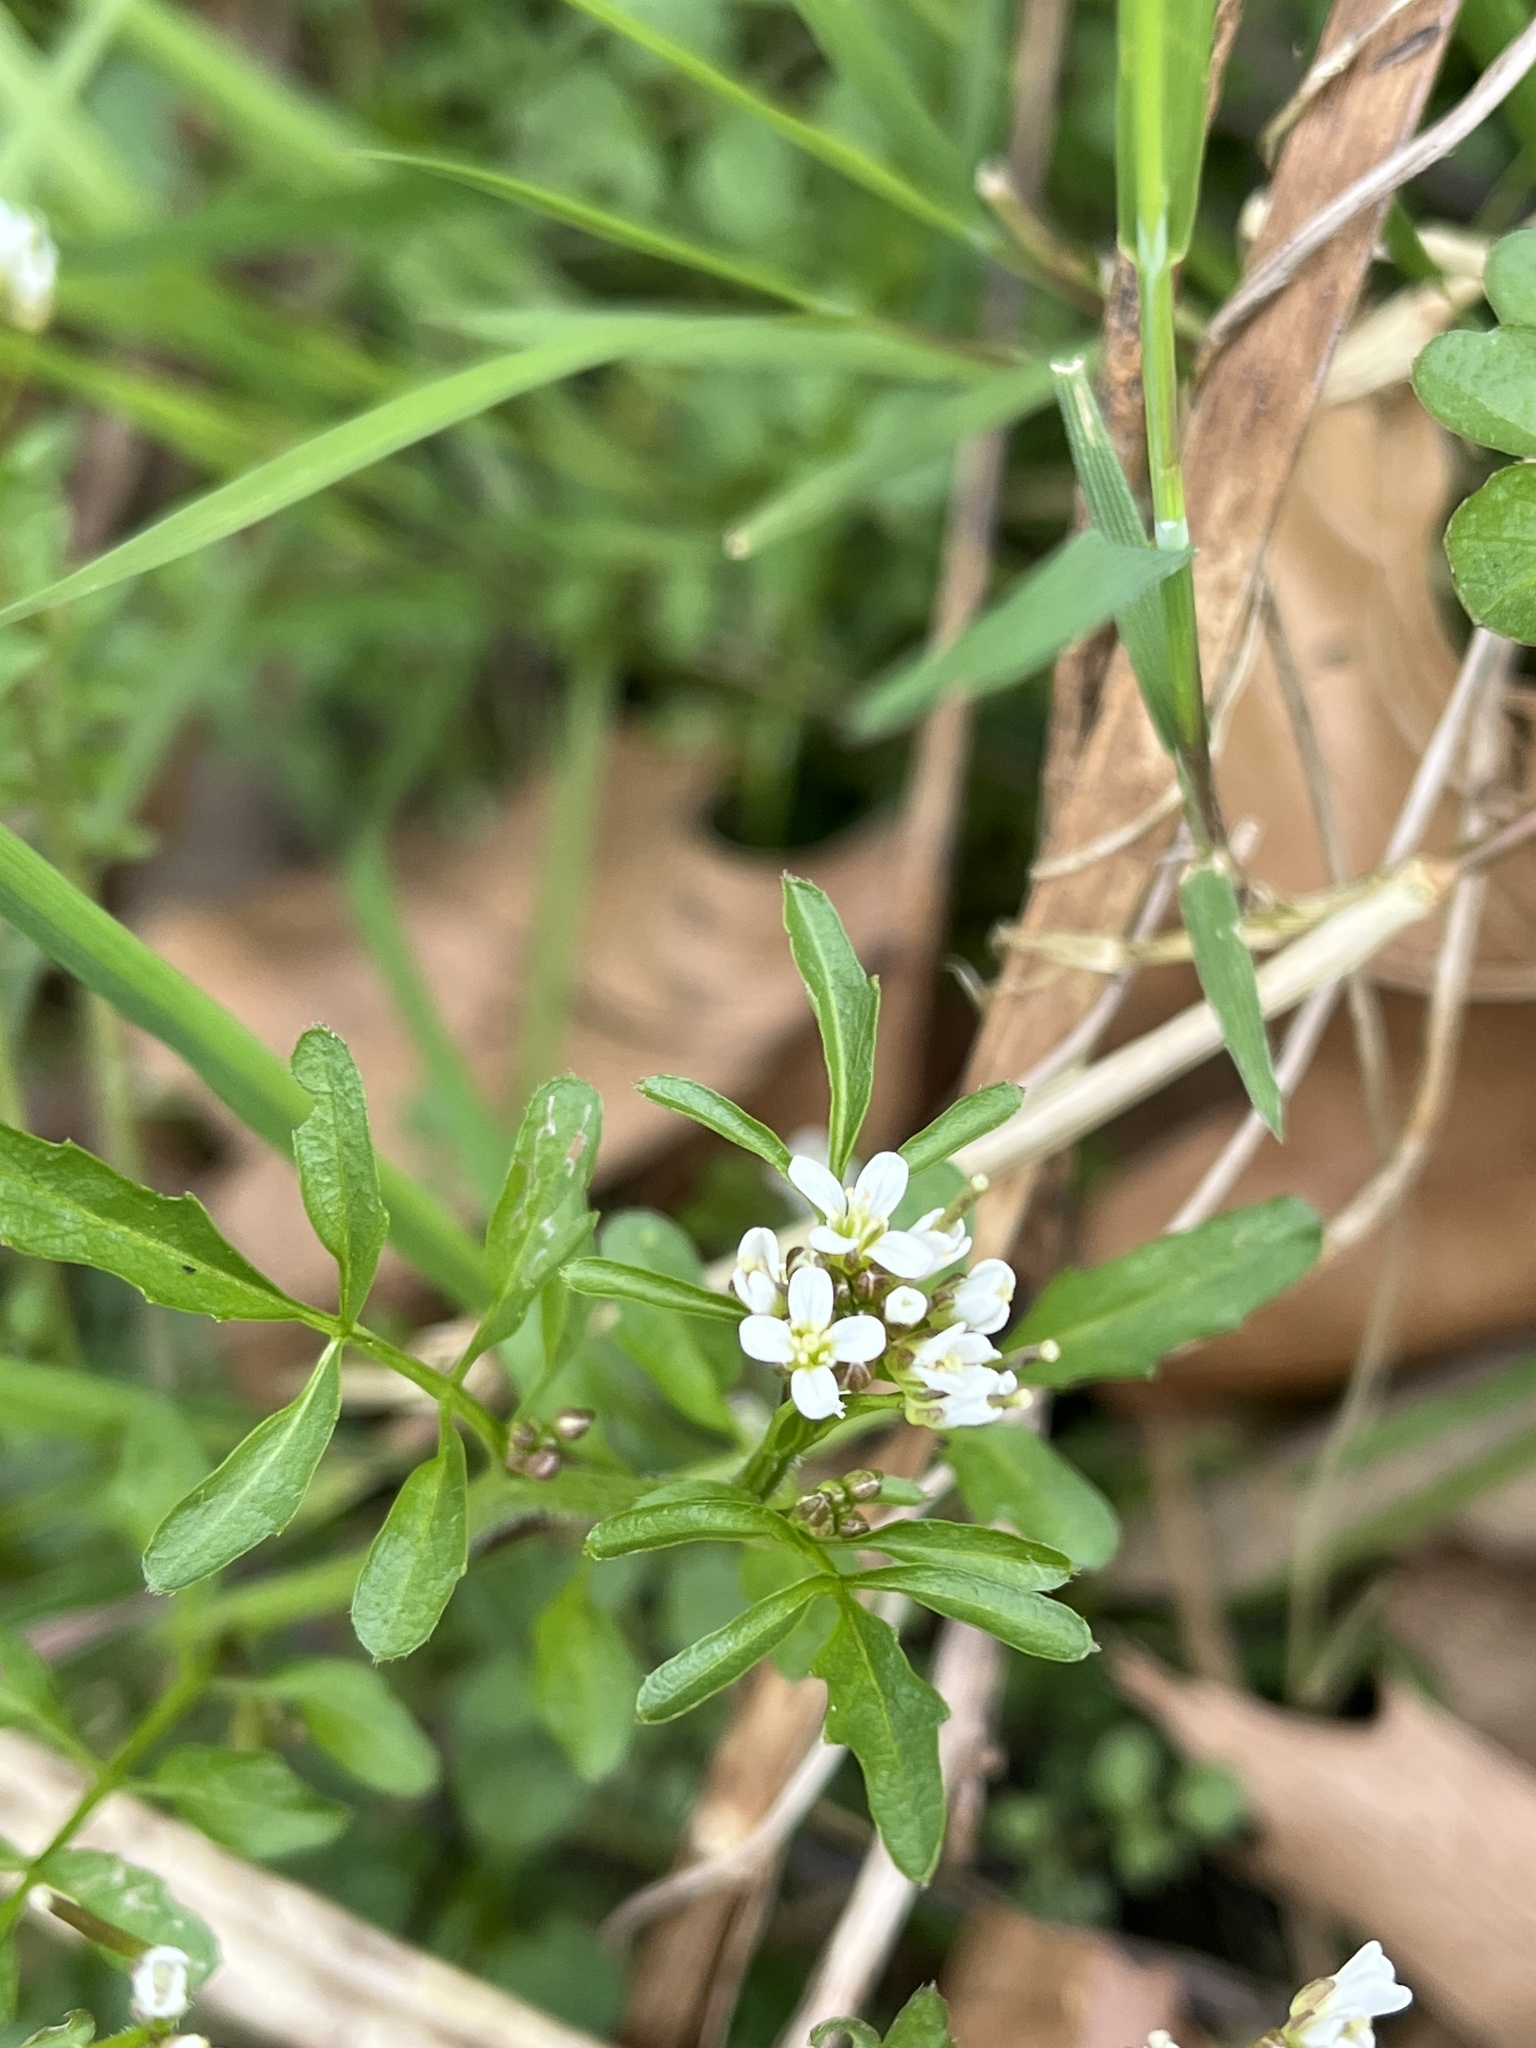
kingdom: Plantae
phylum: Tracheophyta
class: Magnoliopsida
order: Brassicales
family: Brassicaceae
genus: Cardamine
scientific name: Cardamine flexuosa
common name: Woodland bittercress
